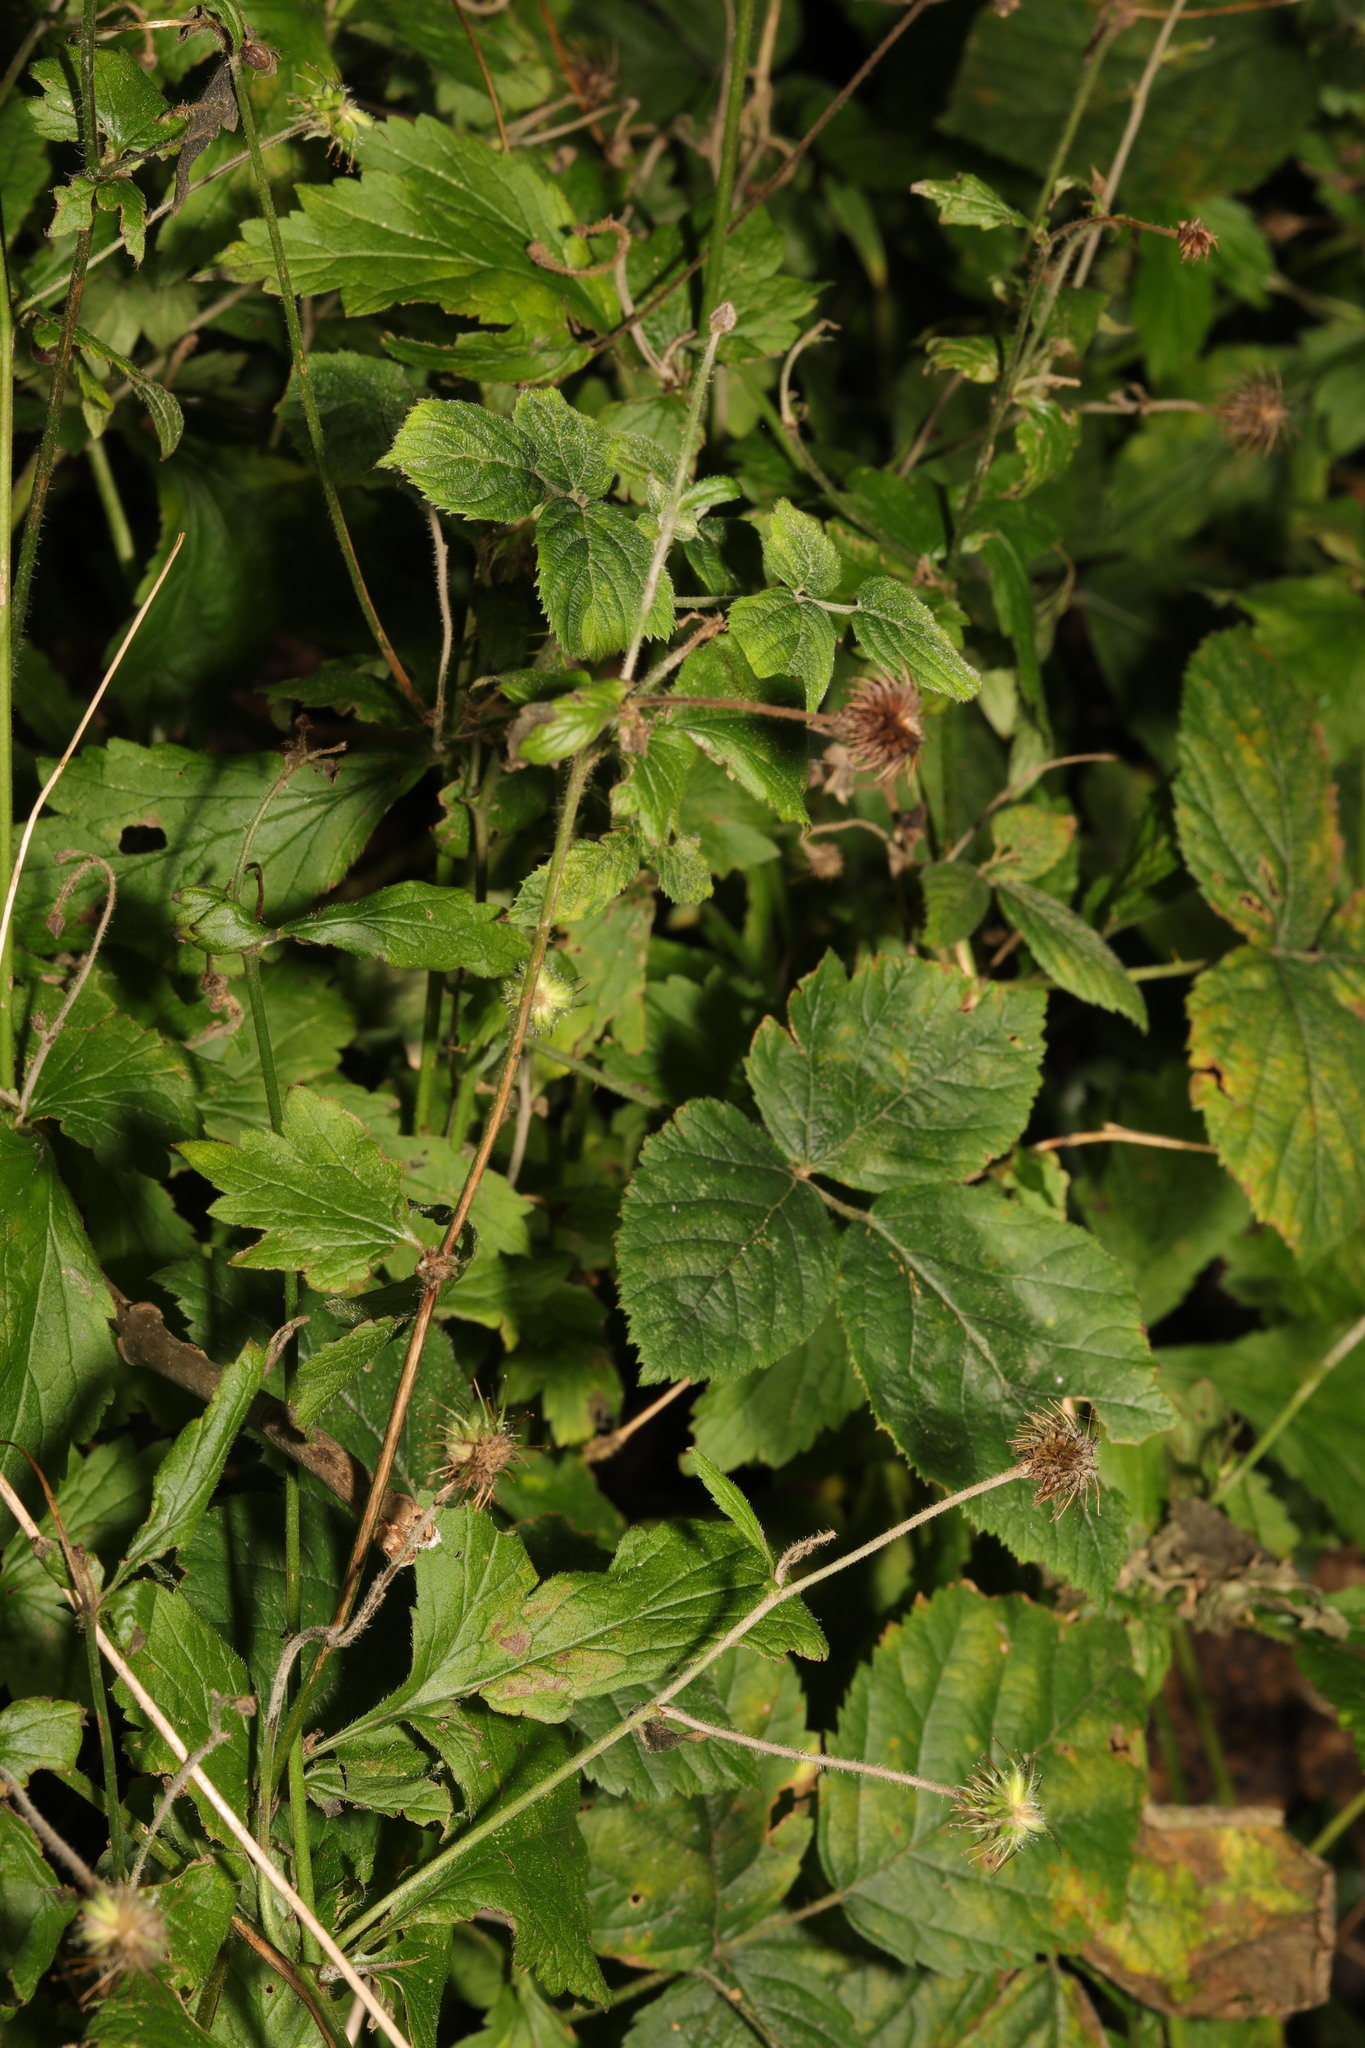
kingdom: Plantae
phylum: Tracheophyta
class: Magnoliopsida
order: Rosales
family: Rosaceae
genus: Geum
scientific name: Geum urbanum
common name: Wood avens
